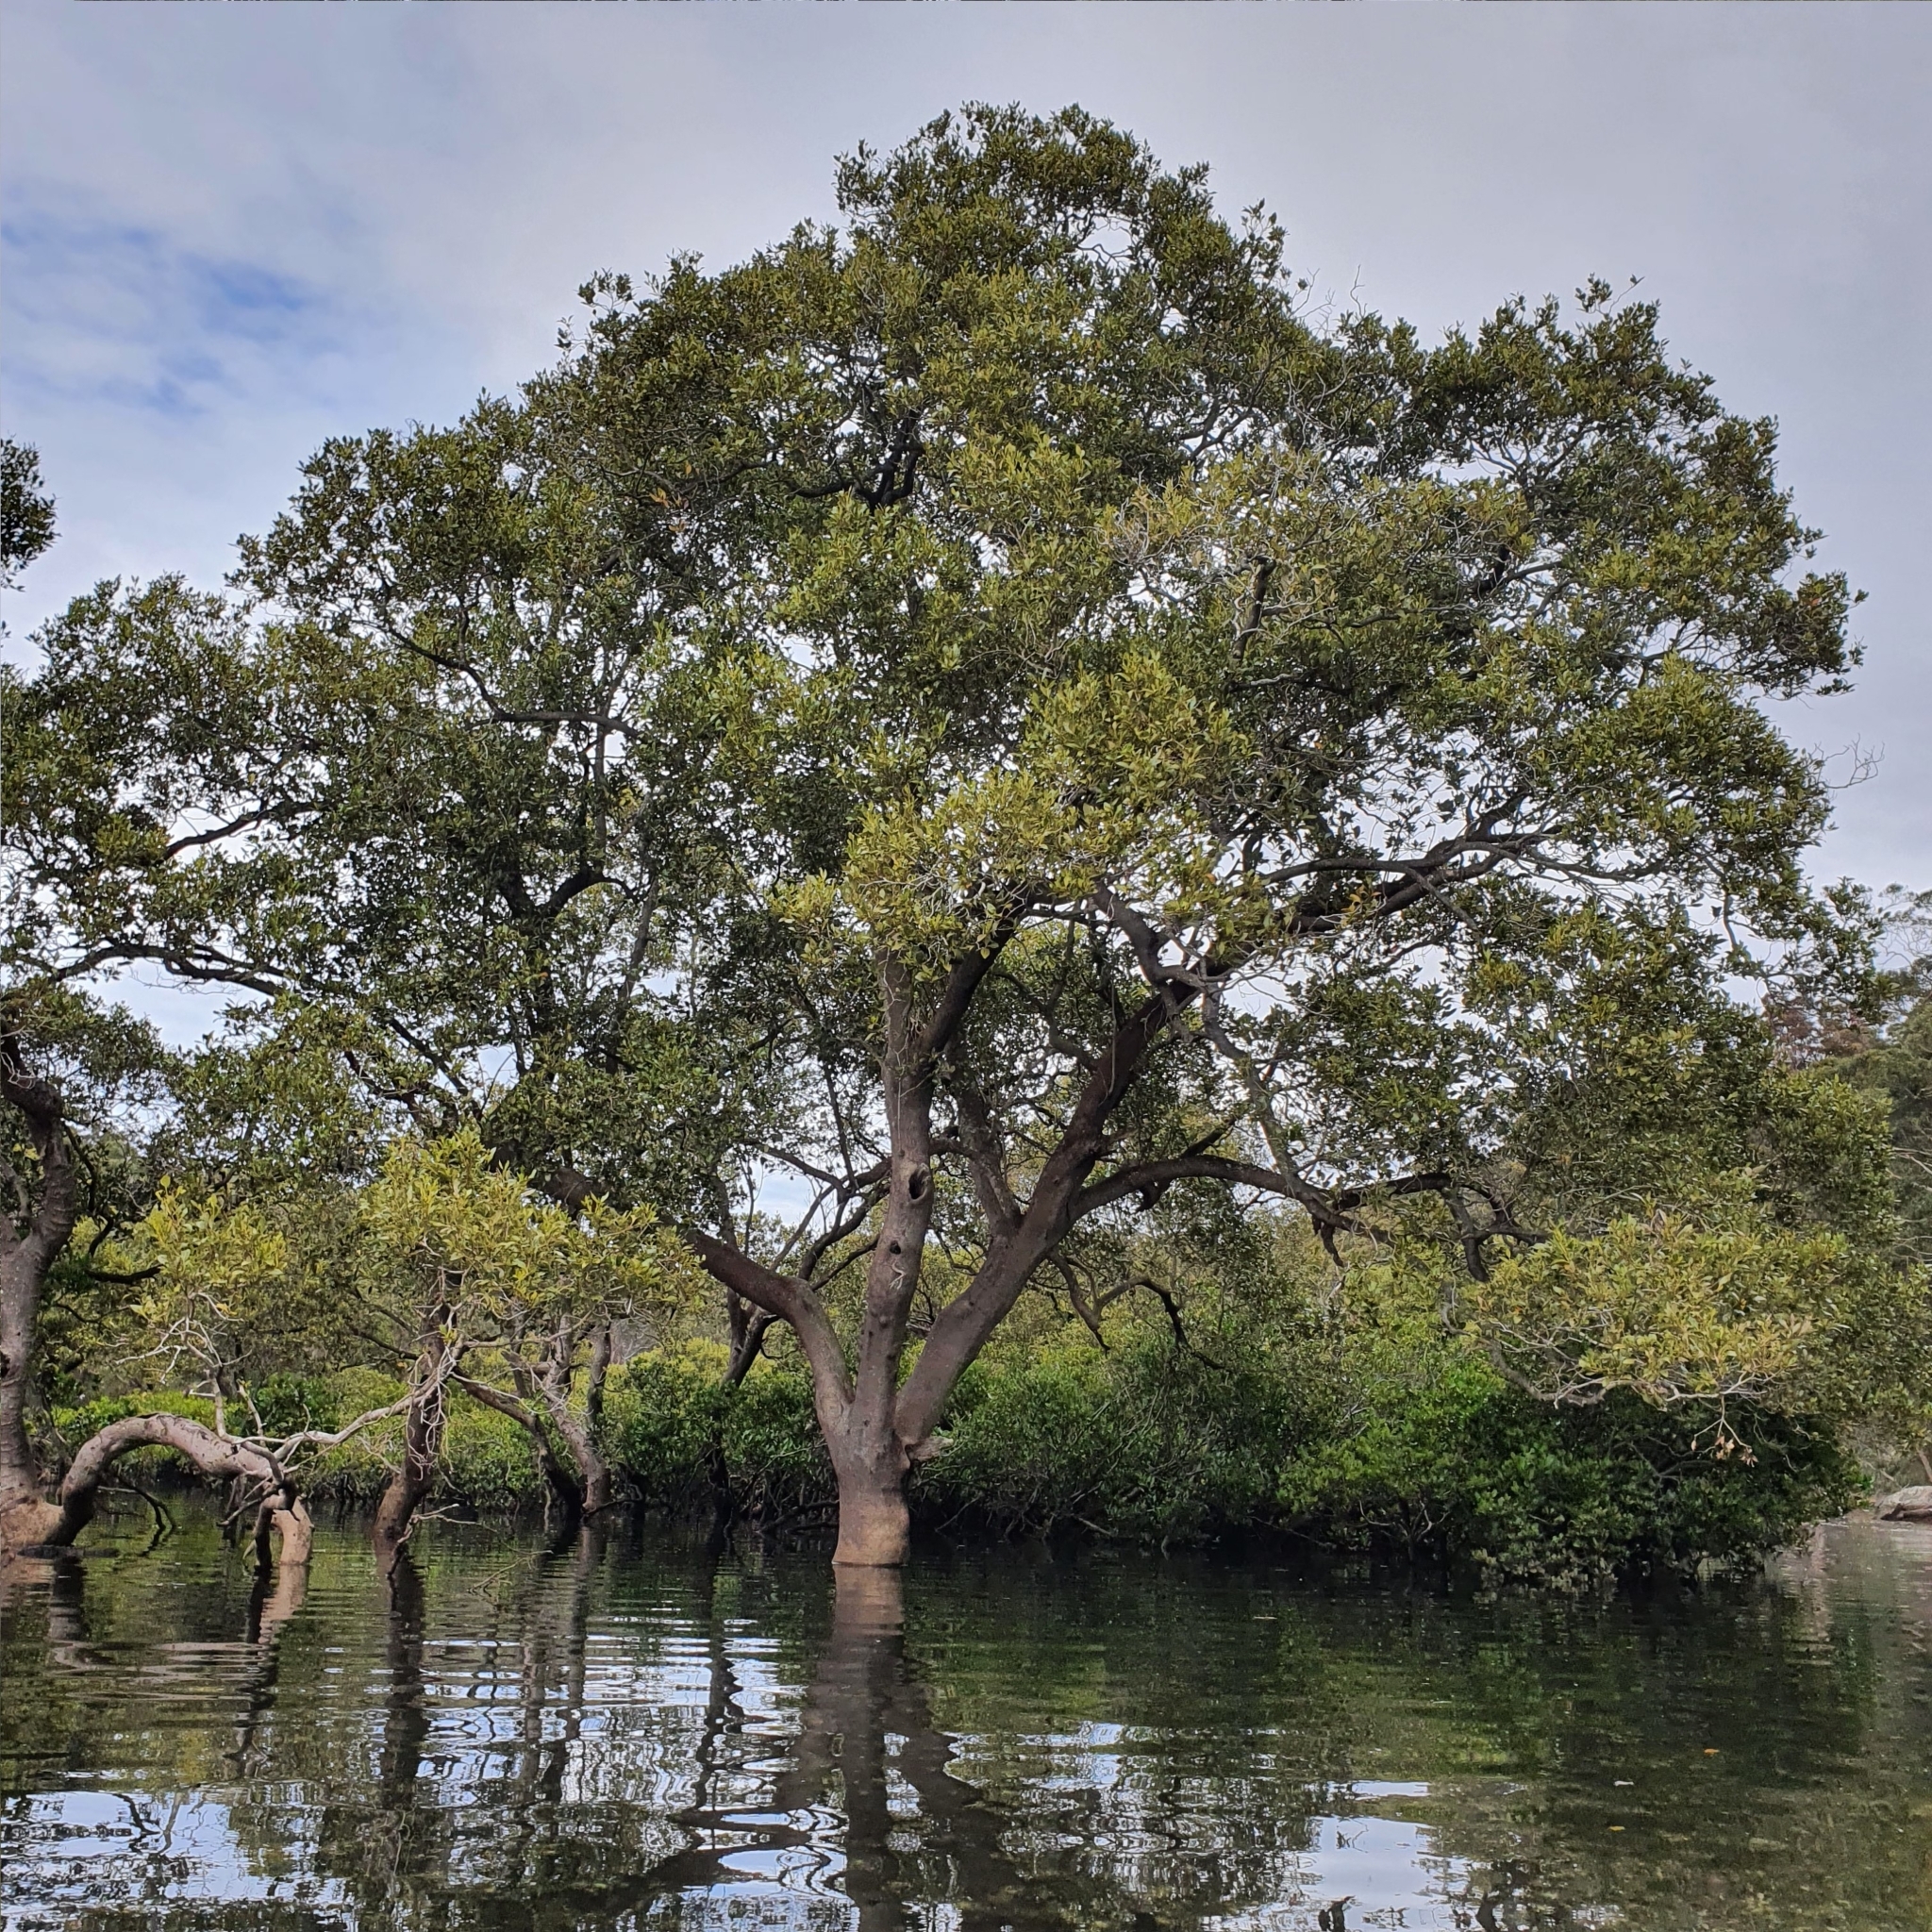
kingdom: Plantae
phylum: Tracheophyta
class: Magnoliopsida
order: Lamiales
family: Acanthaceae
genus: Avicennia
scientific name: Avicennia marina
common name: Gray mangrove
